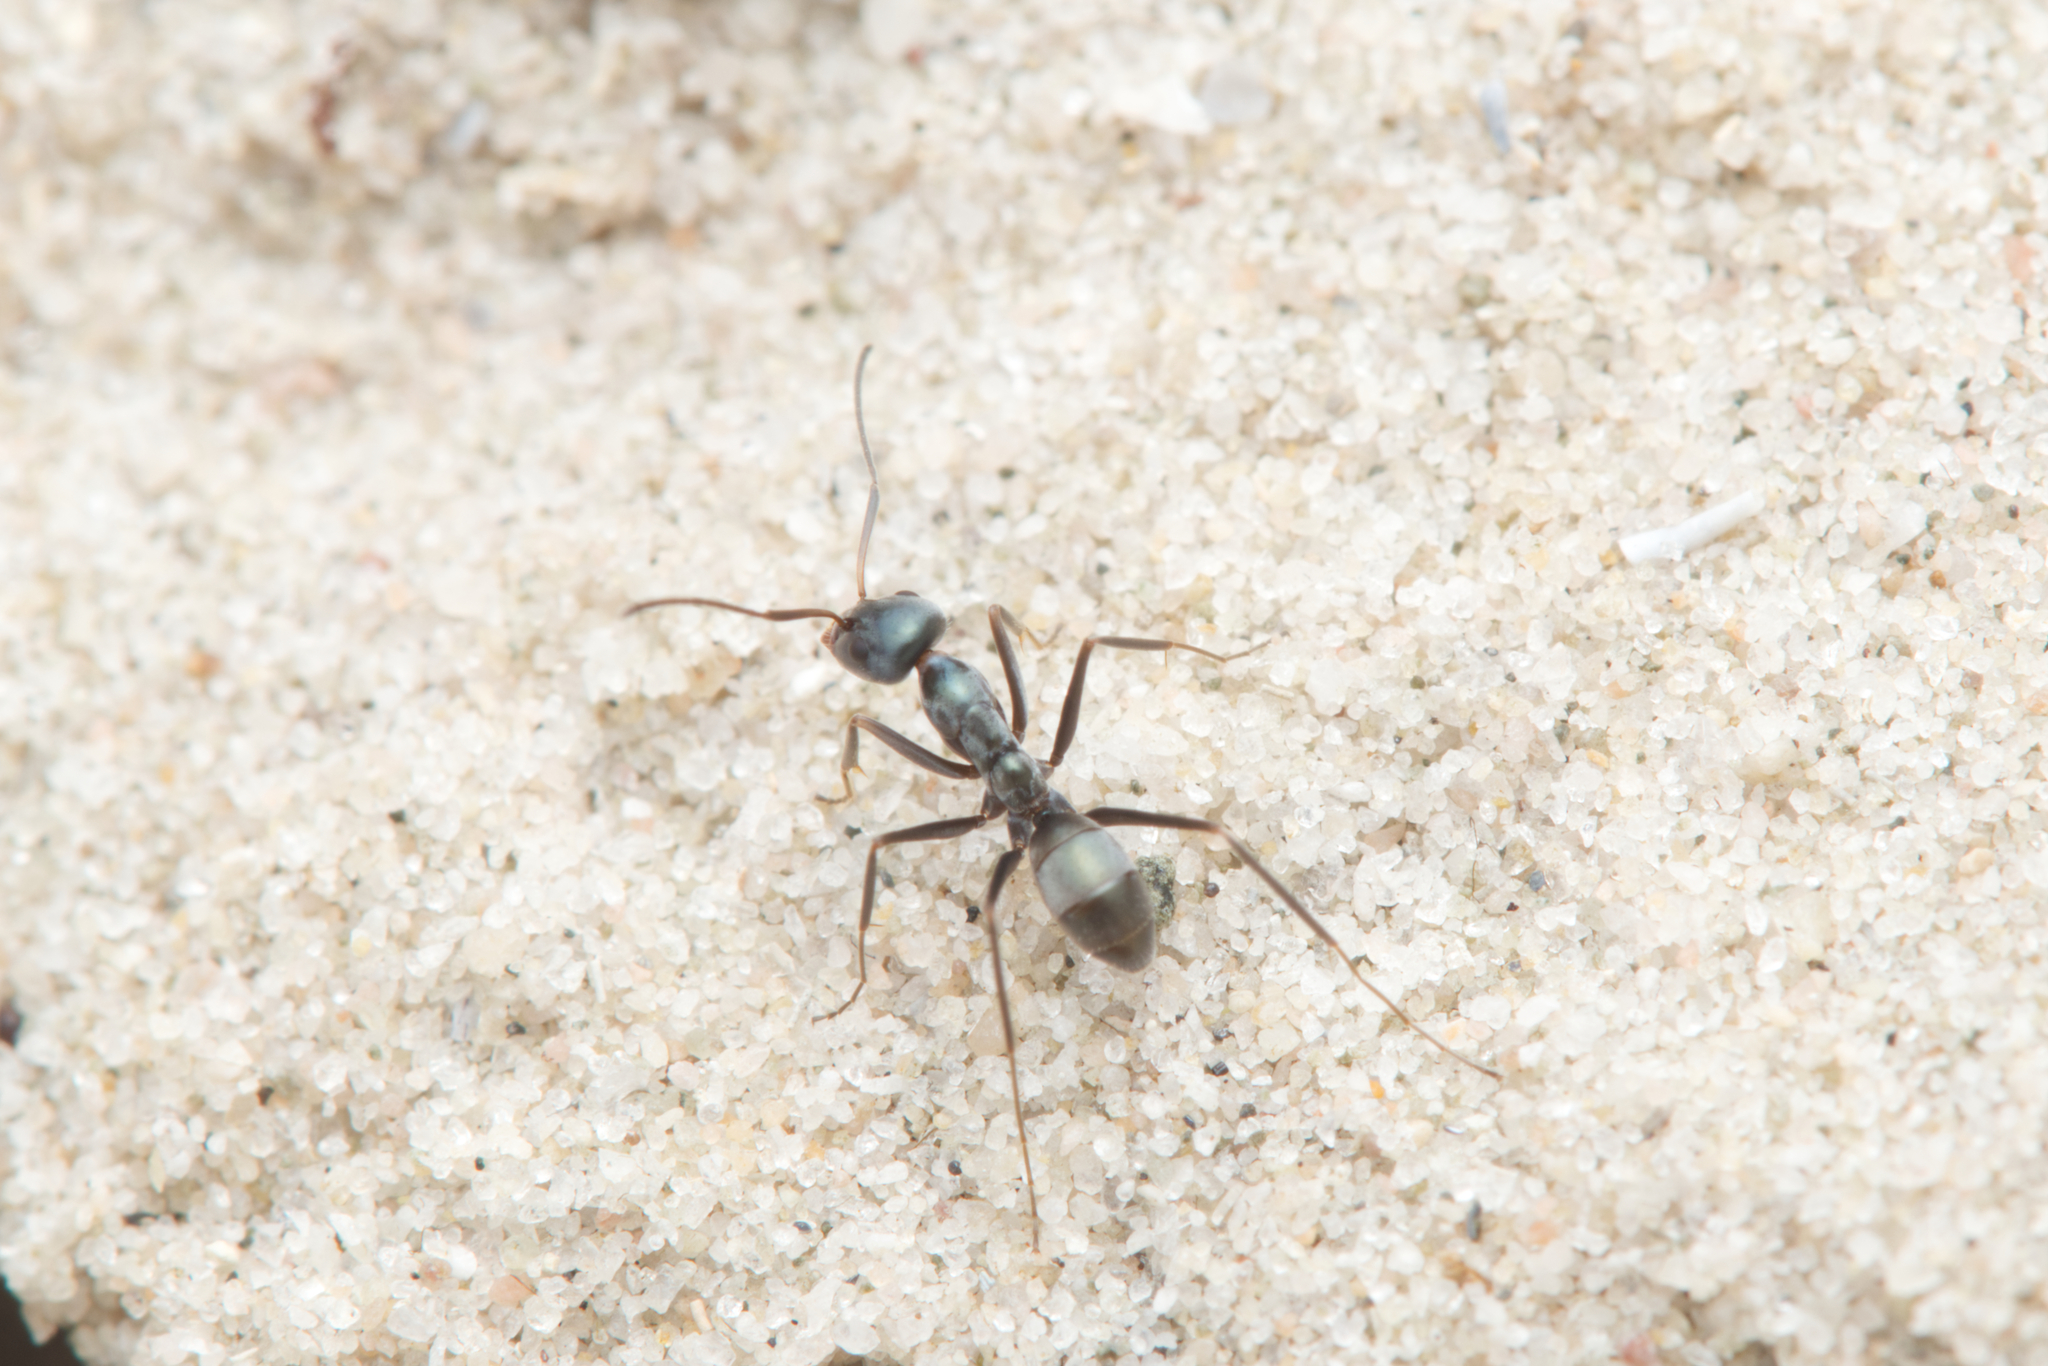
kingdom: Animalia
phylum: Arthropoda
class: Insecta
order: Hymenoptera
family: Formicidae
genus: Iridomyrmex
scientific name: Iridomyrmex bicknelli
